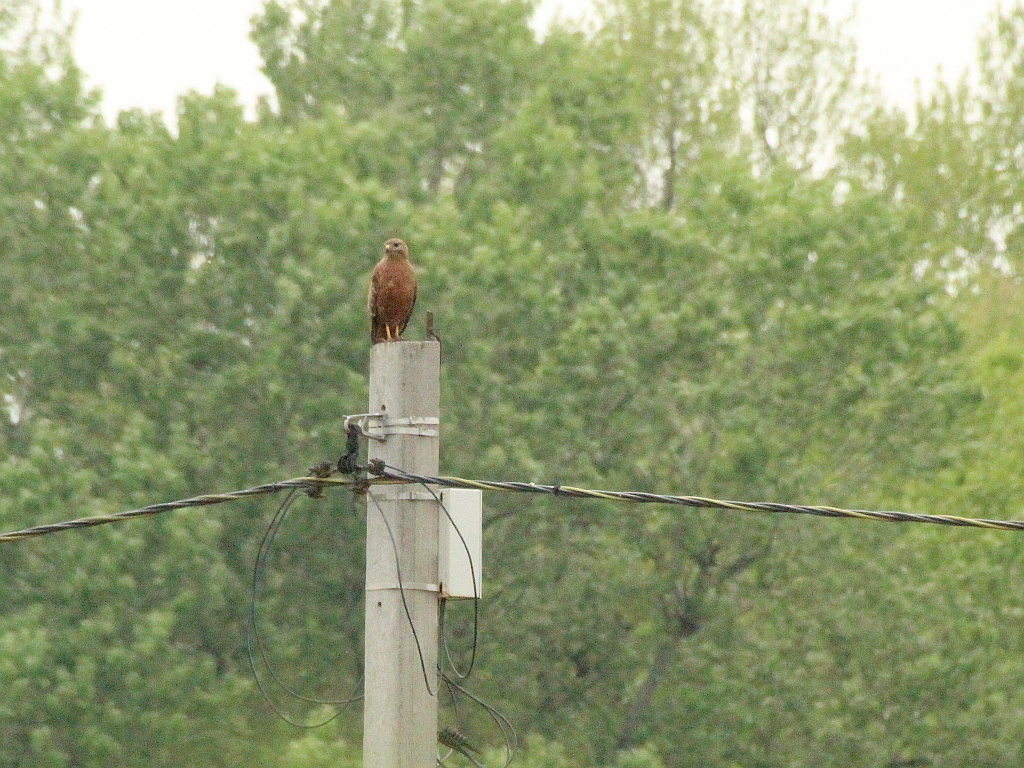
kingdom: Animalia
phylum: Chordata
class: Aves
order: Accipitriformes
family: Accipitridae
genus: Buteo
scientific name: Buteo buteo
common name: Common buzzard
